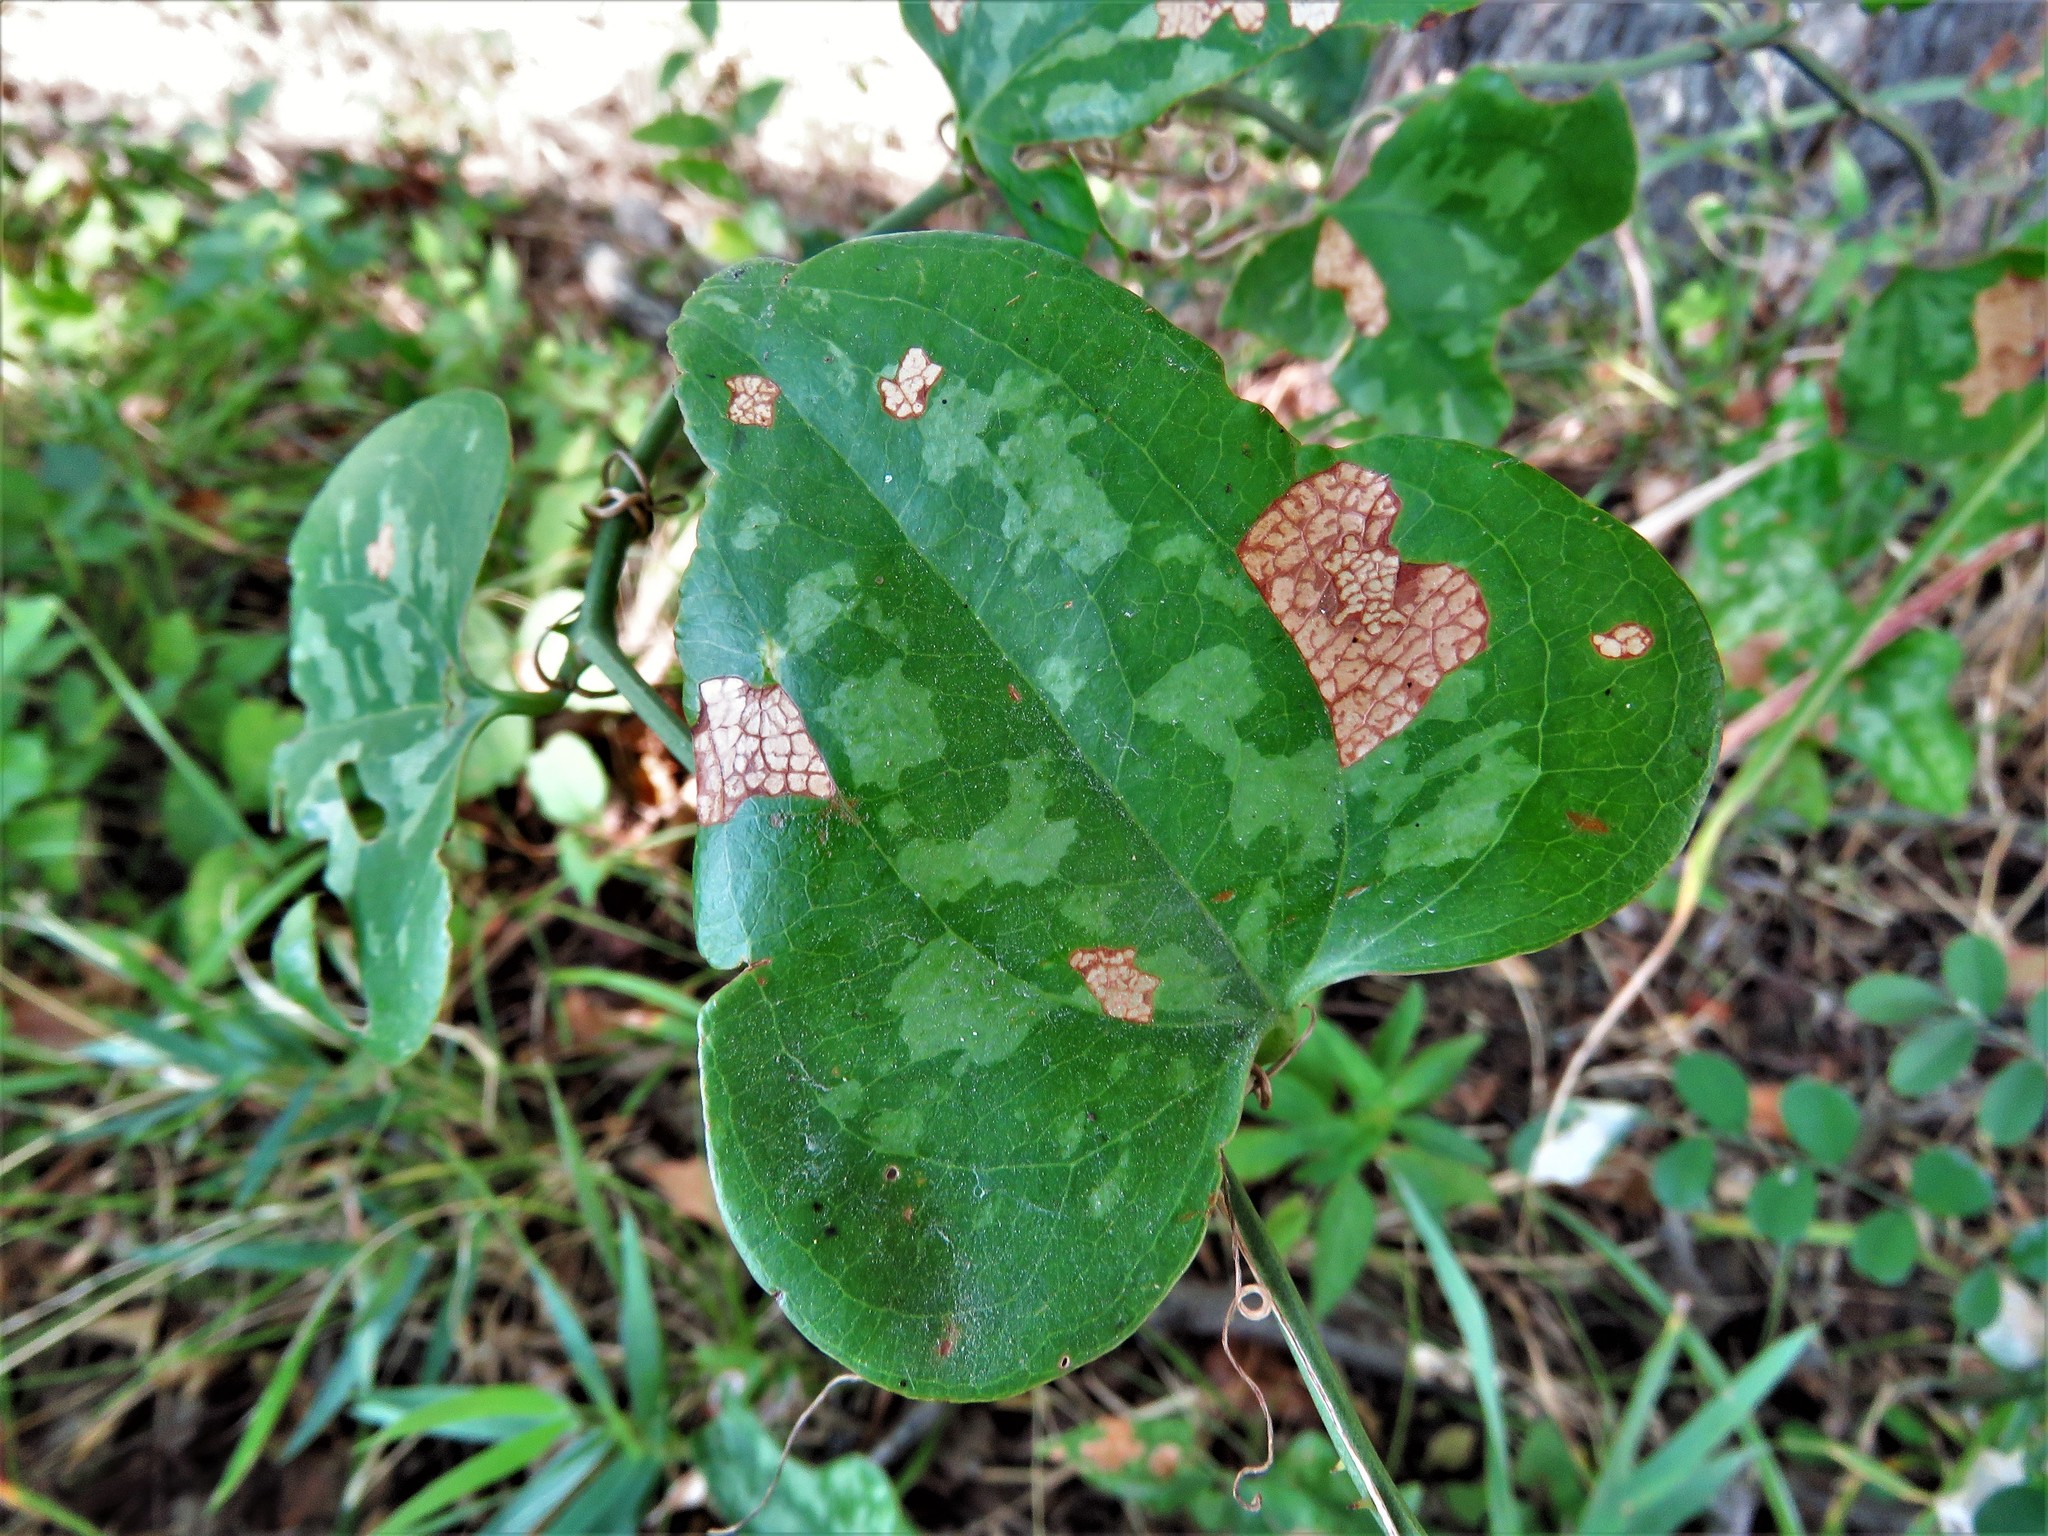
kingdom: Plantae
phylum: Tracheophyta
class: Liliopsida
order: Liliales
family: Smilacaceae
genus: Smilax
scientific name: Smilax bona-nox
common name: Catbrier
